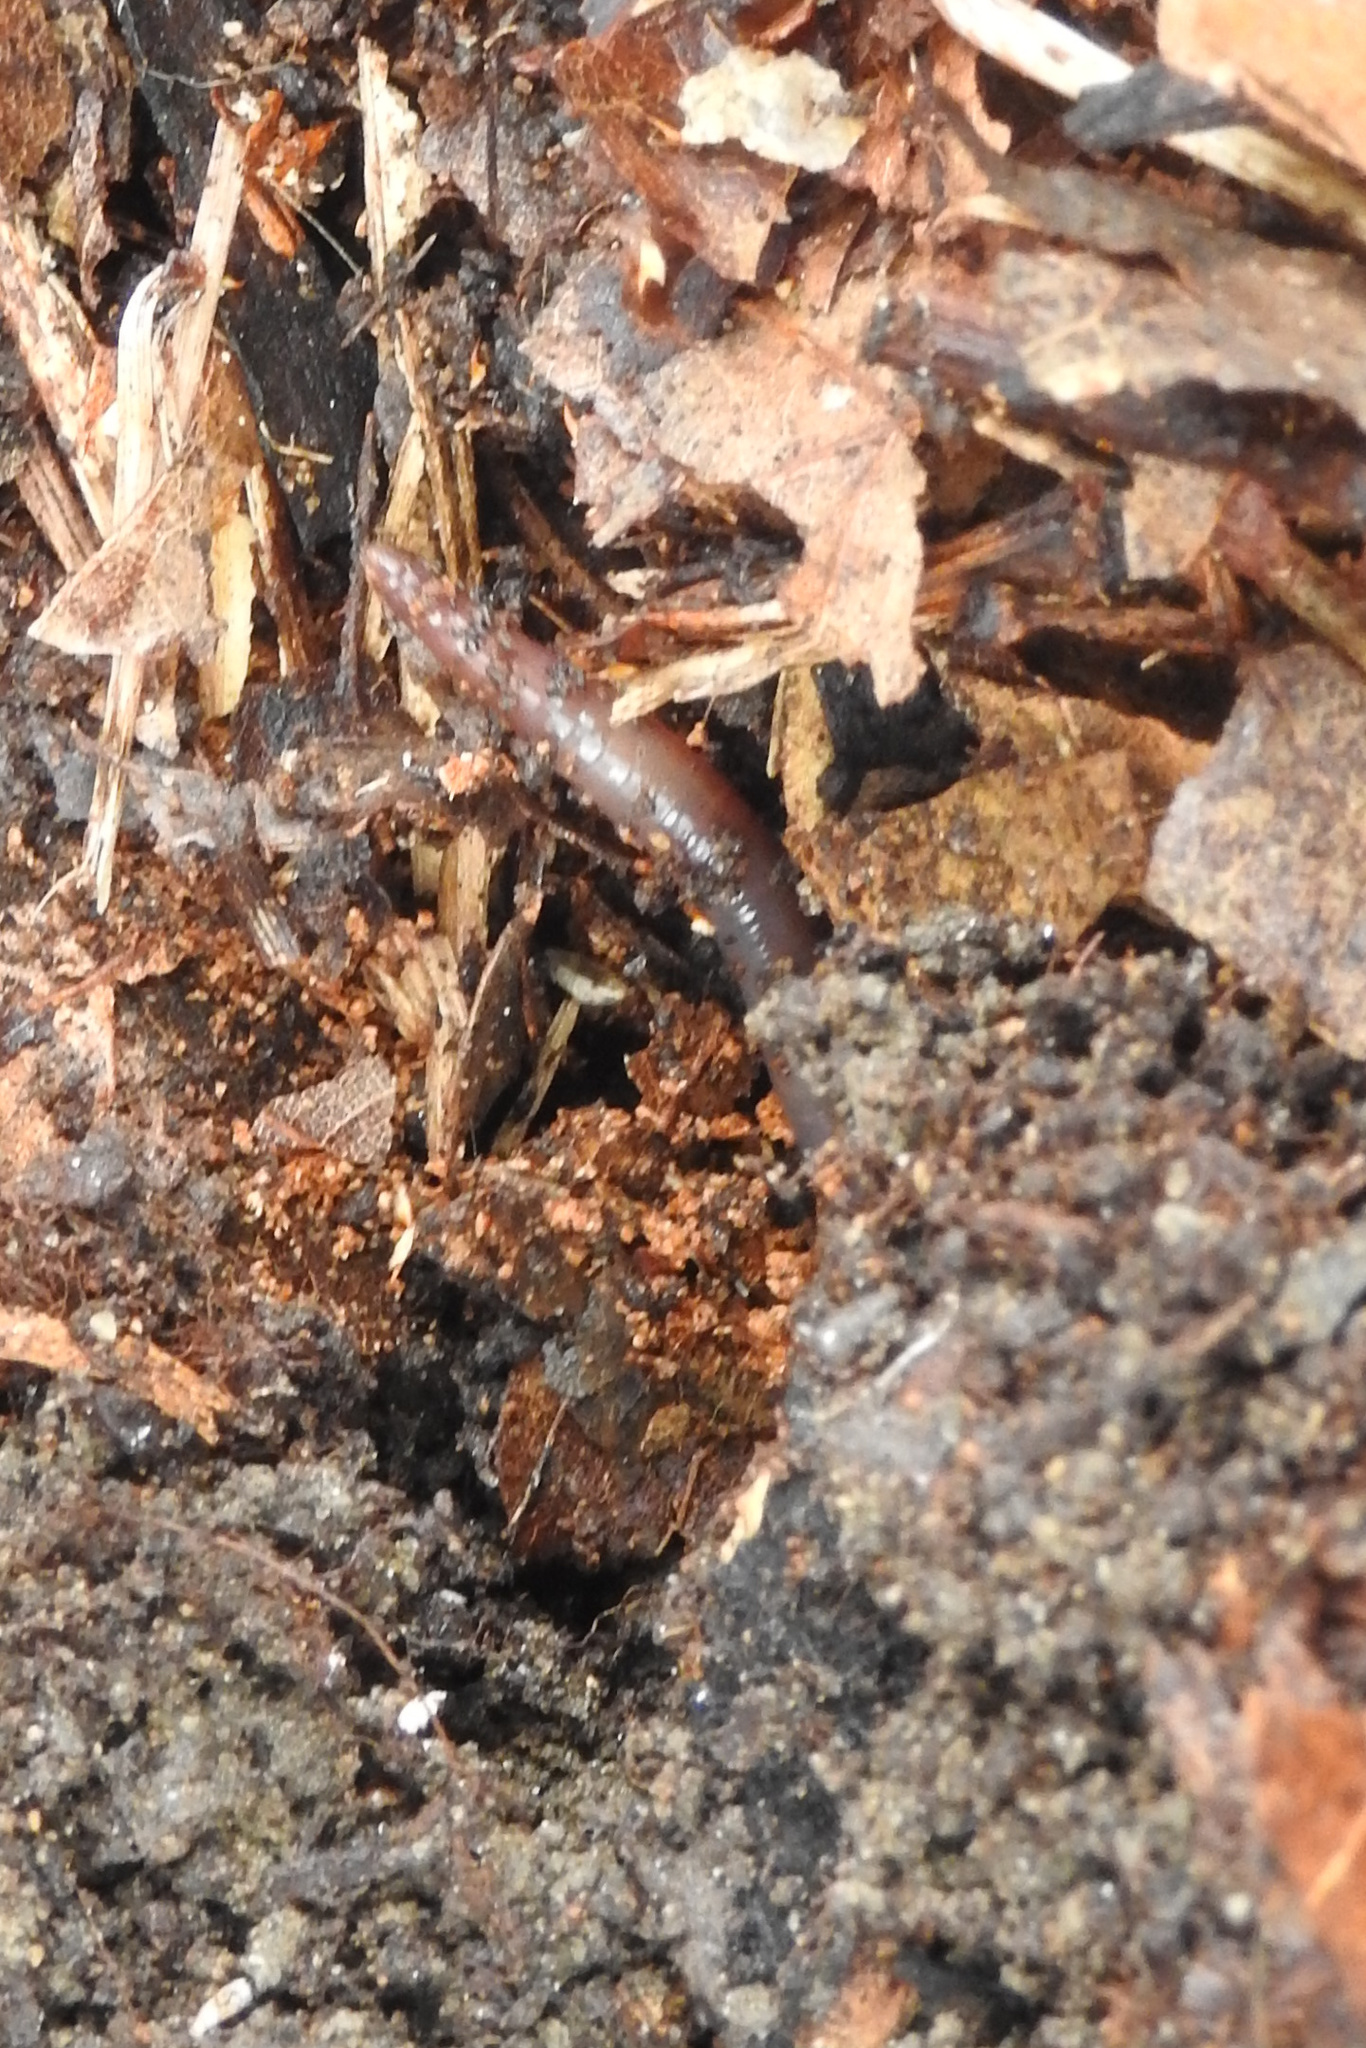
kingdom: Animalia
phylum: Annelida
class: Clitellata
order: Crassiclitellata
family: Lumbricidae
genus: Lumbricus
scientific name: Lumbricus terrestris
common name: Common earthworm
